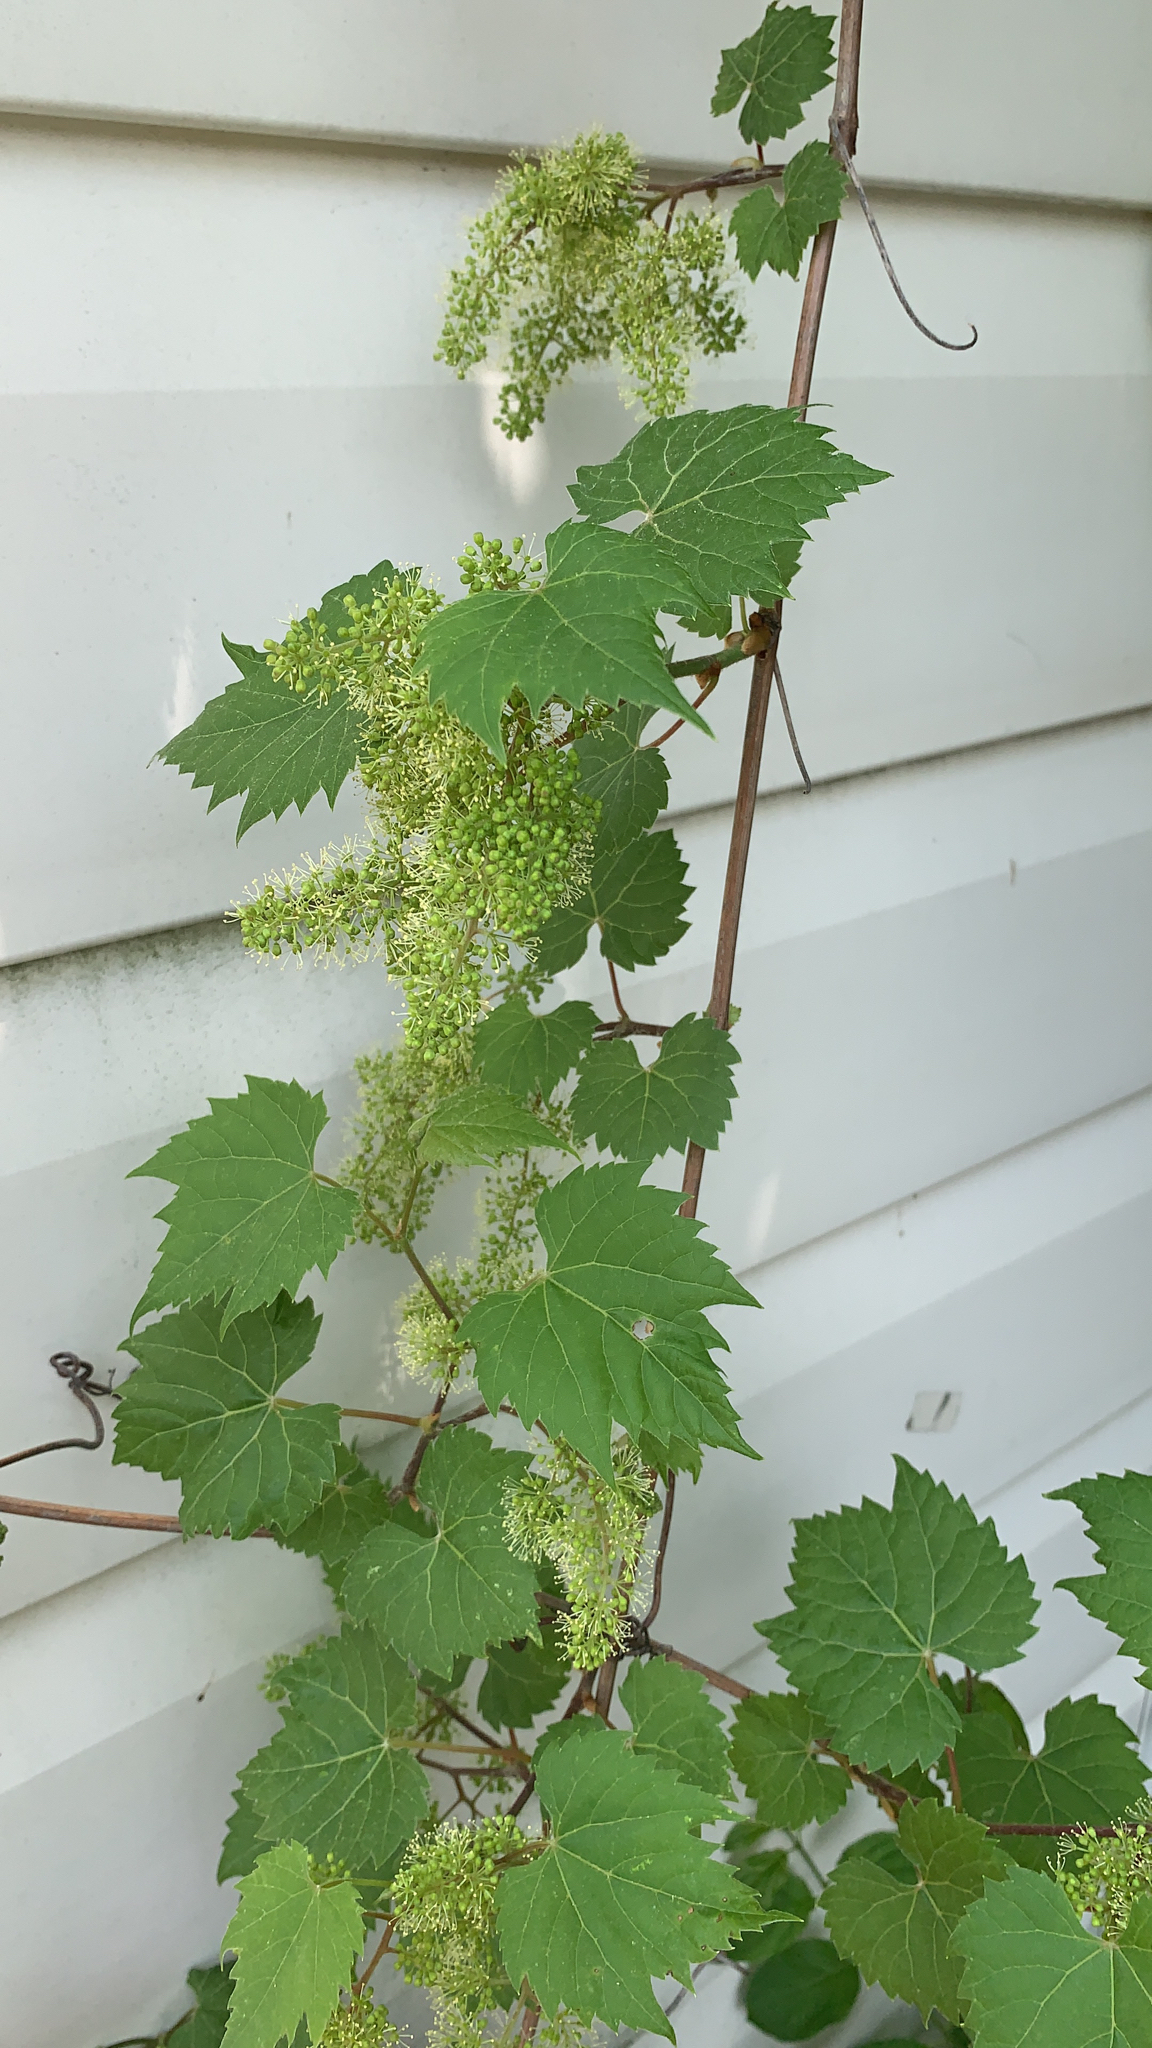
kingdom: Plantae
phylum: Tracheophyta
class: Magnoliopsida
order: Vitales
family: Vitaceae
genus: Vitis
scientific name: Vitis riparia
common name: Frost grape
